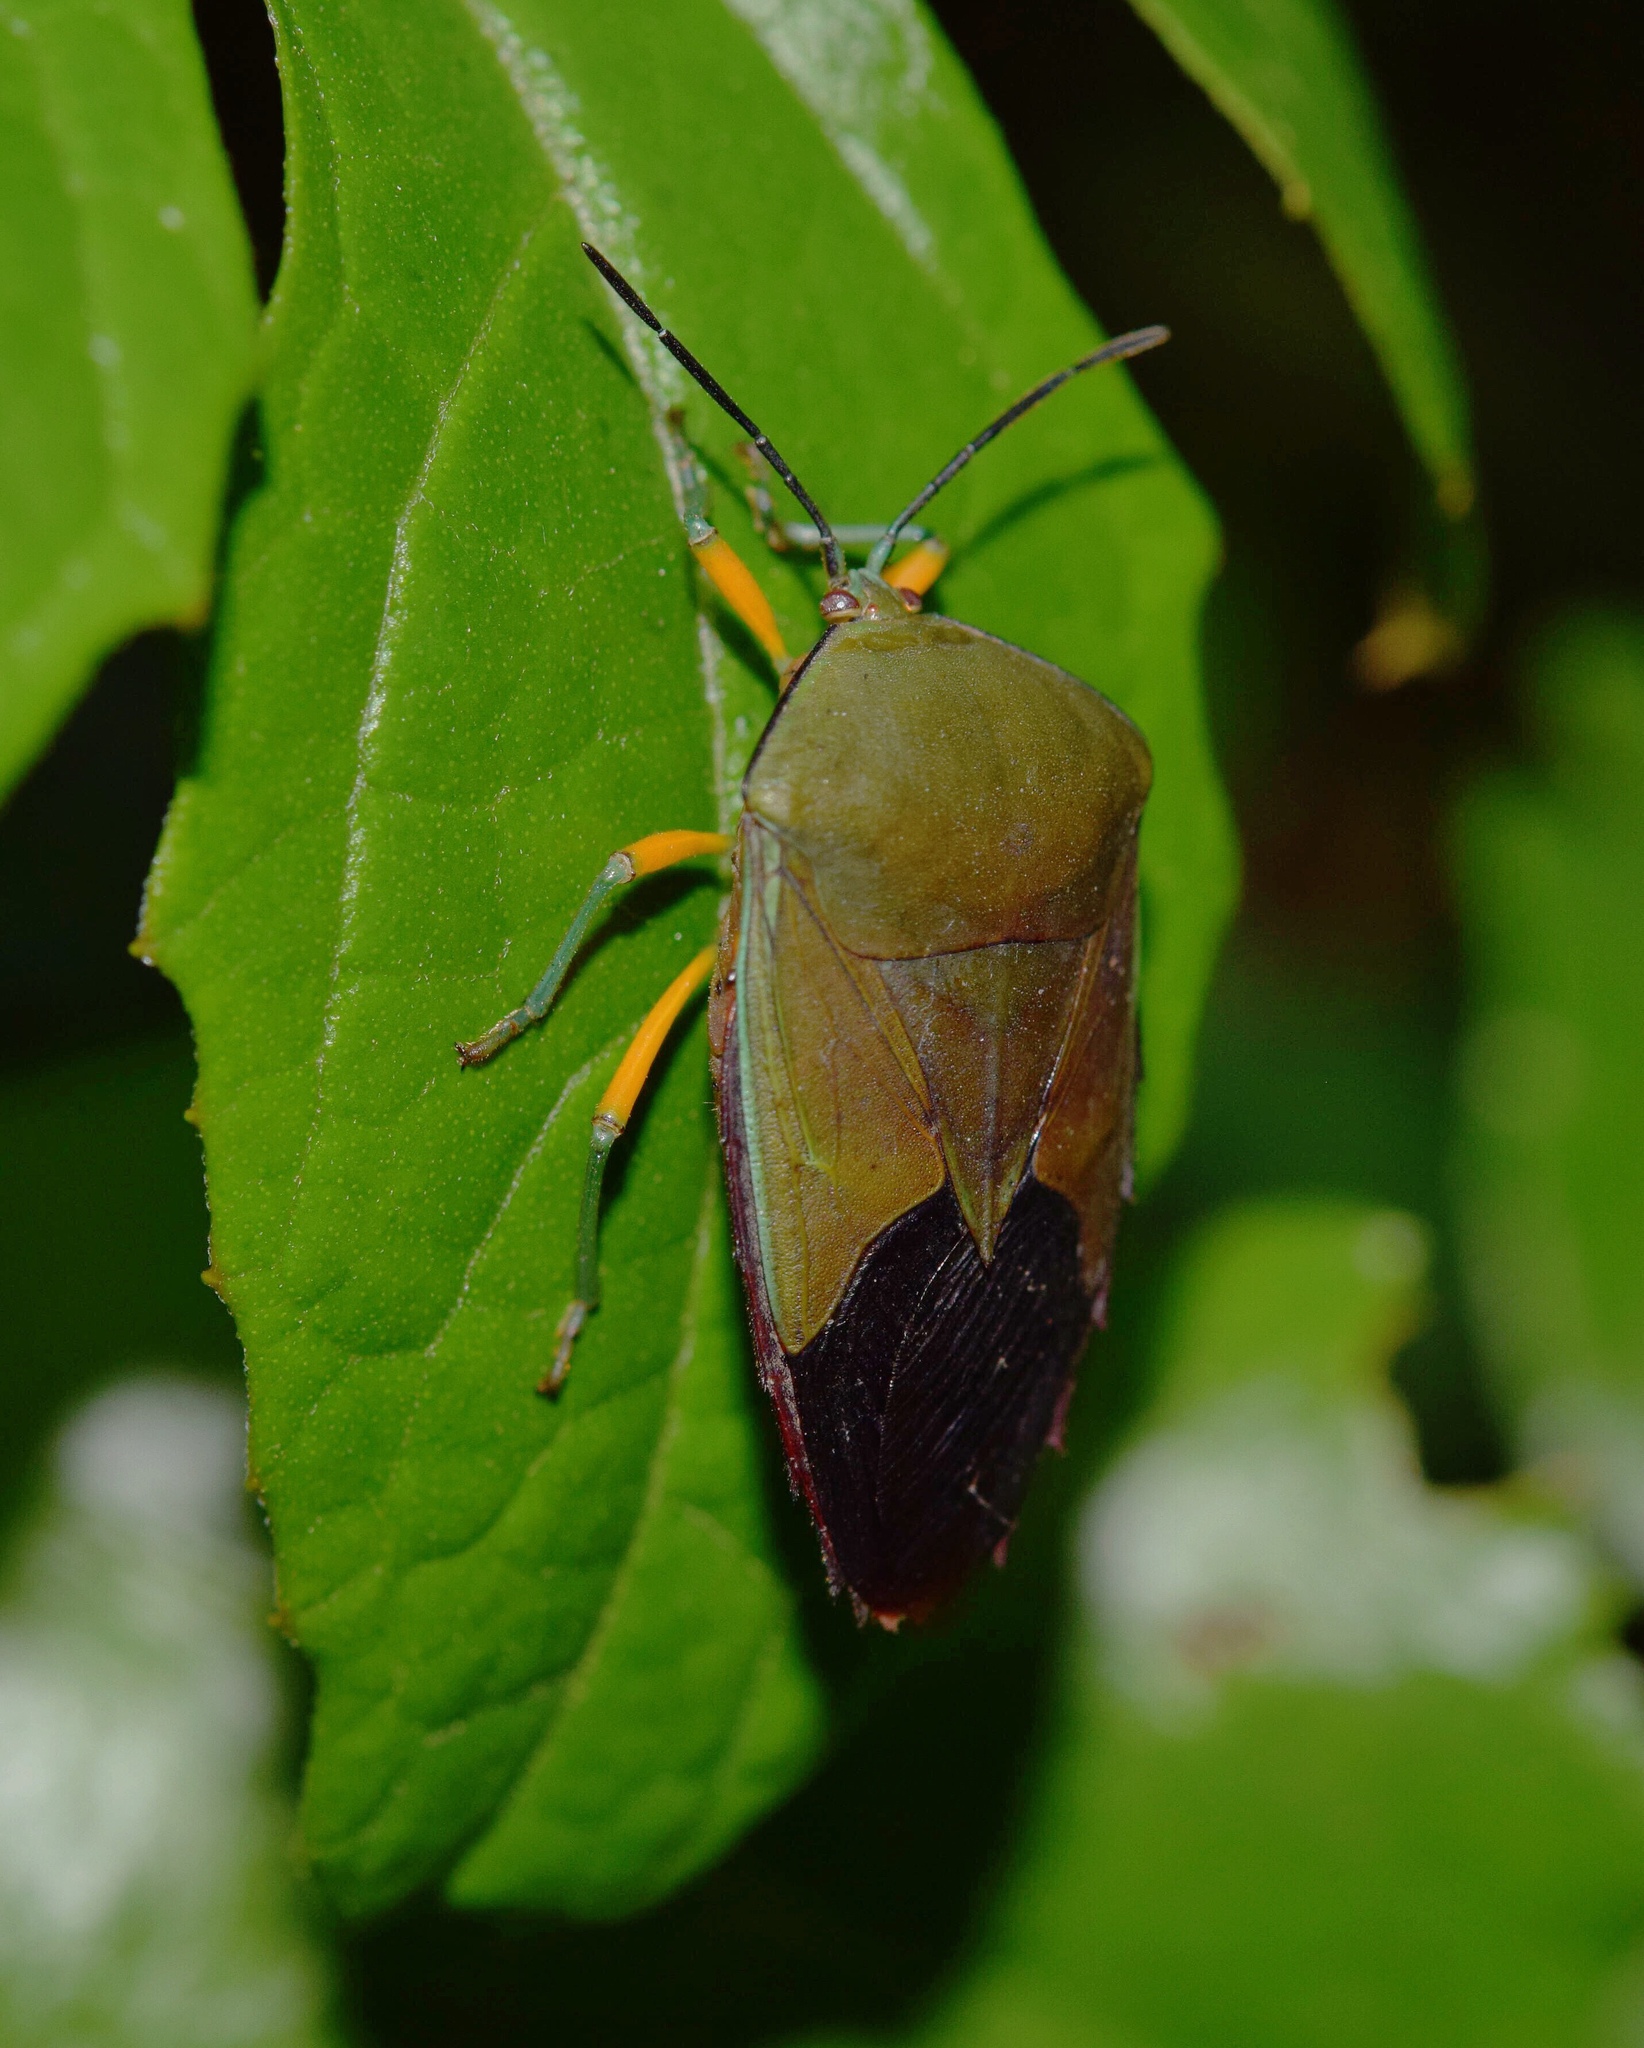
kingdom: Animalia
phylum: Arthropoda
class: Insecta
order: Hemiptera
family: Tessaratomidae
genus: Piezosternum
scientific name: Piezosternum calidum
